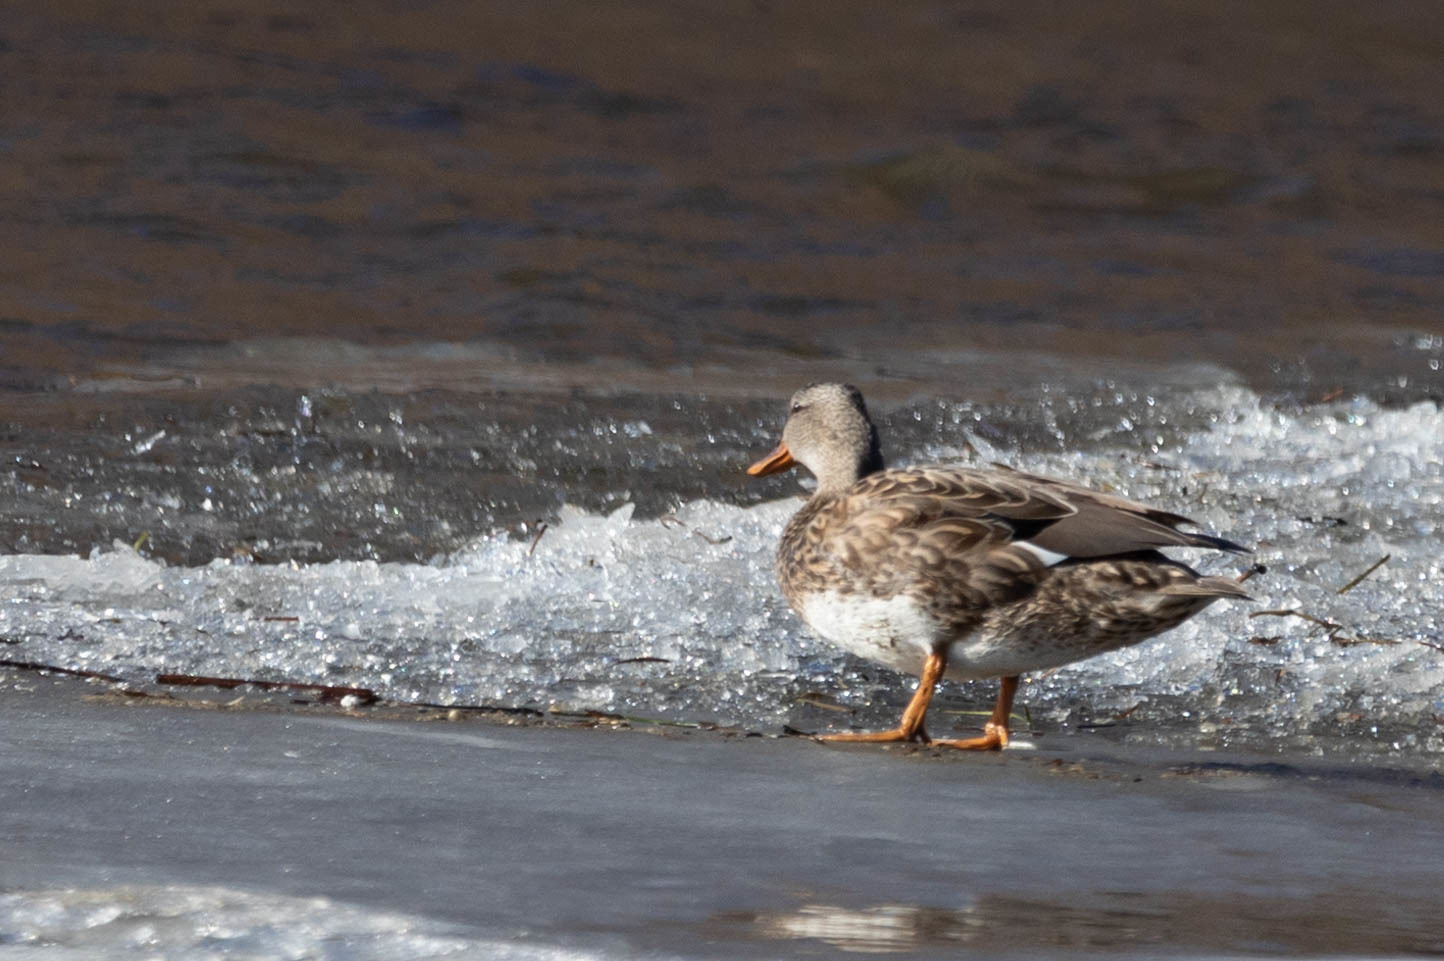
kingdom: Animalia
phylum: Chordata
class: Aves
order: Anseriformes
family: Anatidae
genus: Mareca
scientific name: Mareca strepera
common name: Gadwall
